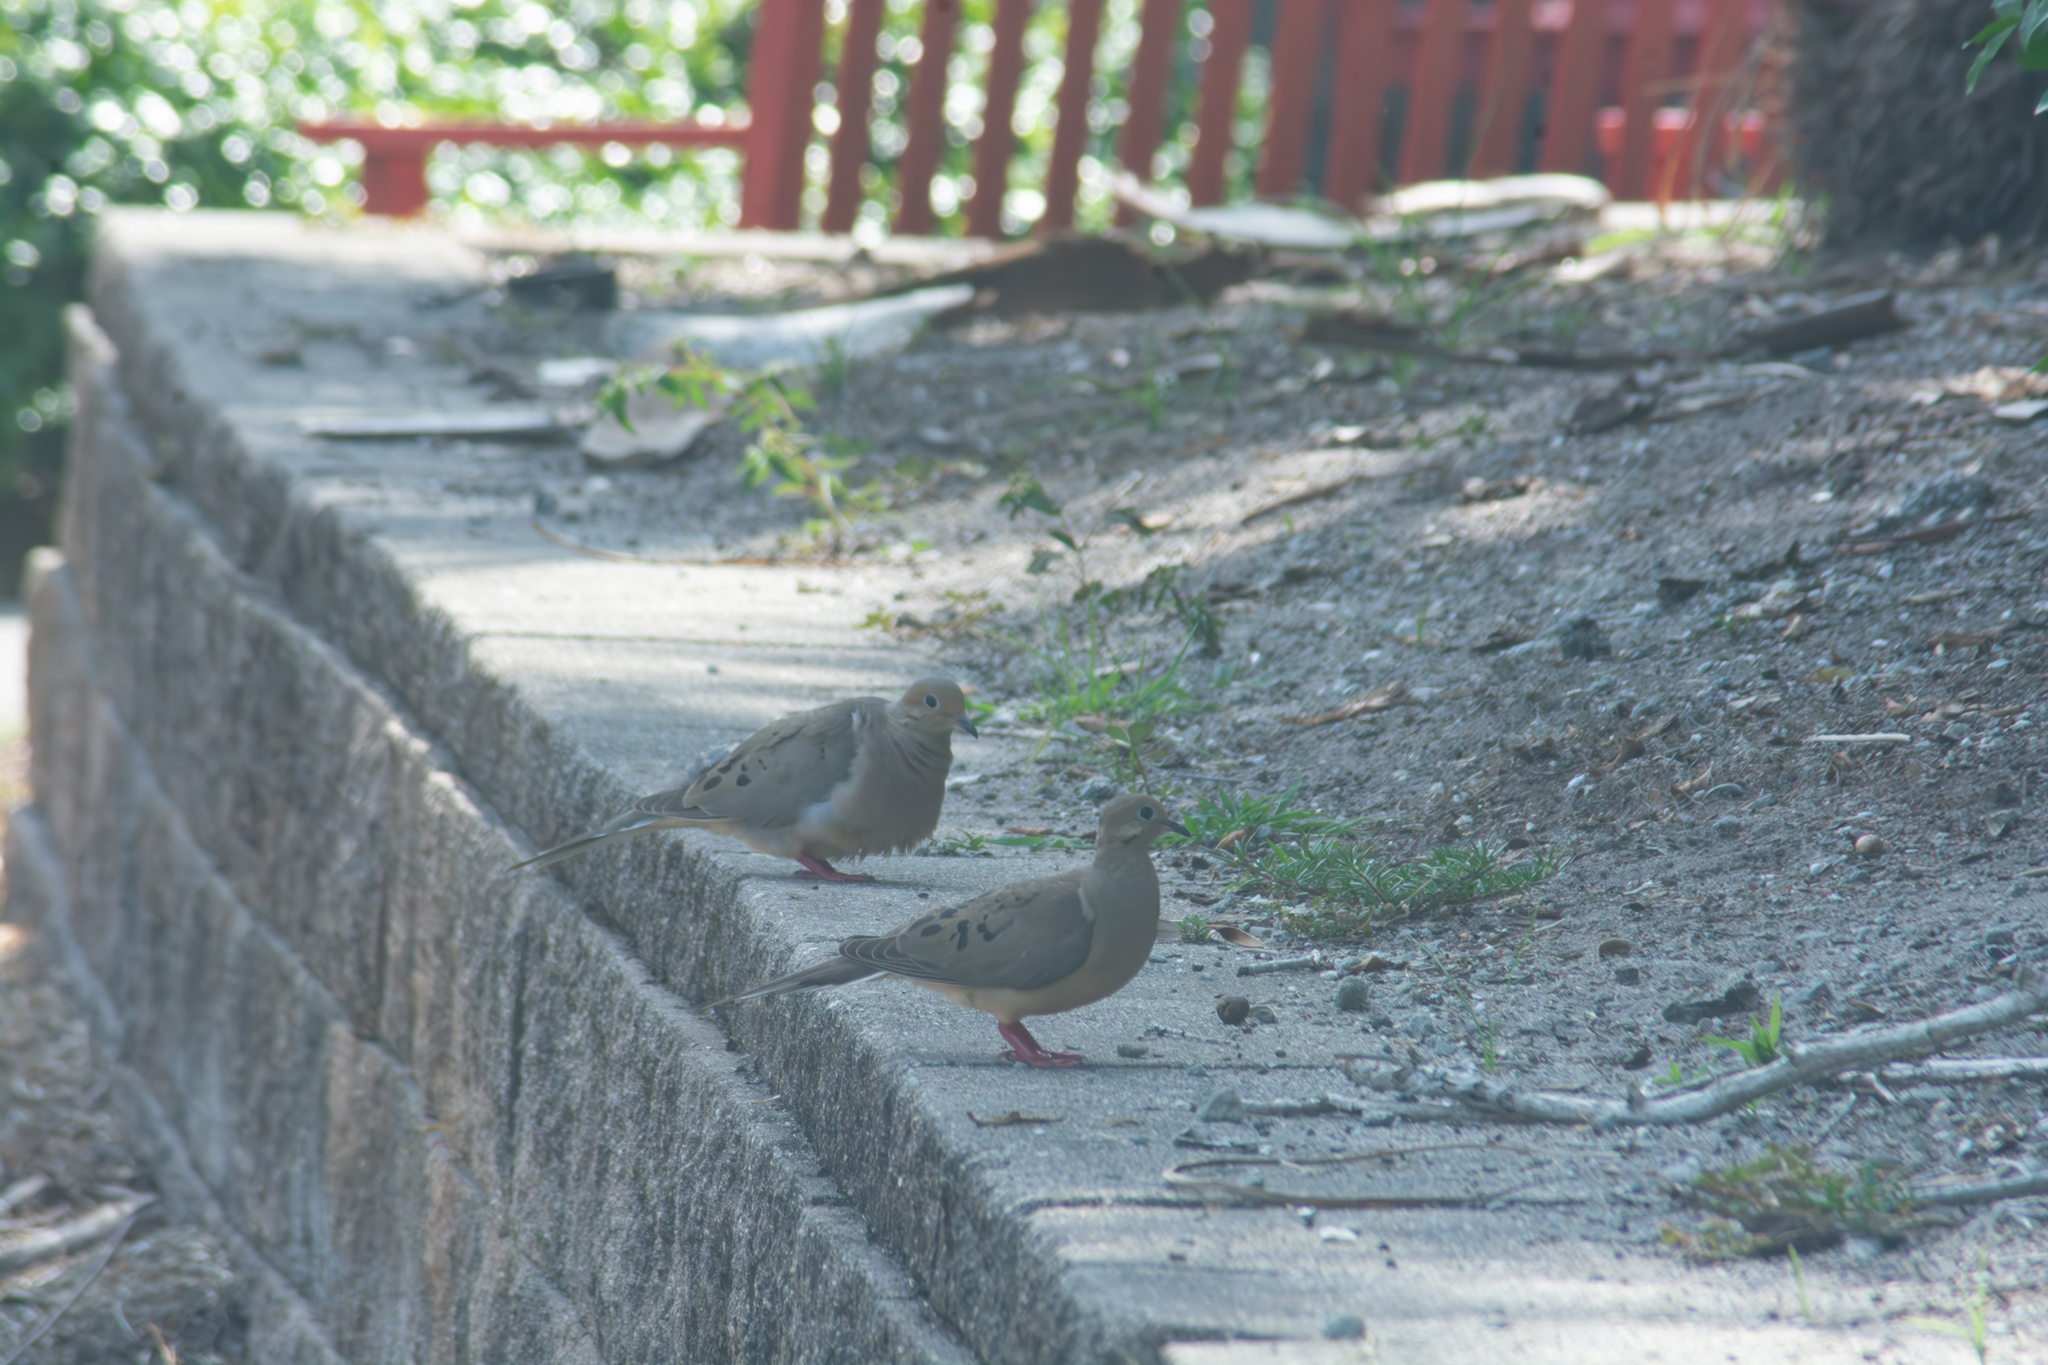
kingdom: Animalia
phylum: Chordata
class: Aves
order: Columbiformes
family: Columbidae
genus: Zenaida
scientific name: Zenaida macroura
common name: Mourning dove
